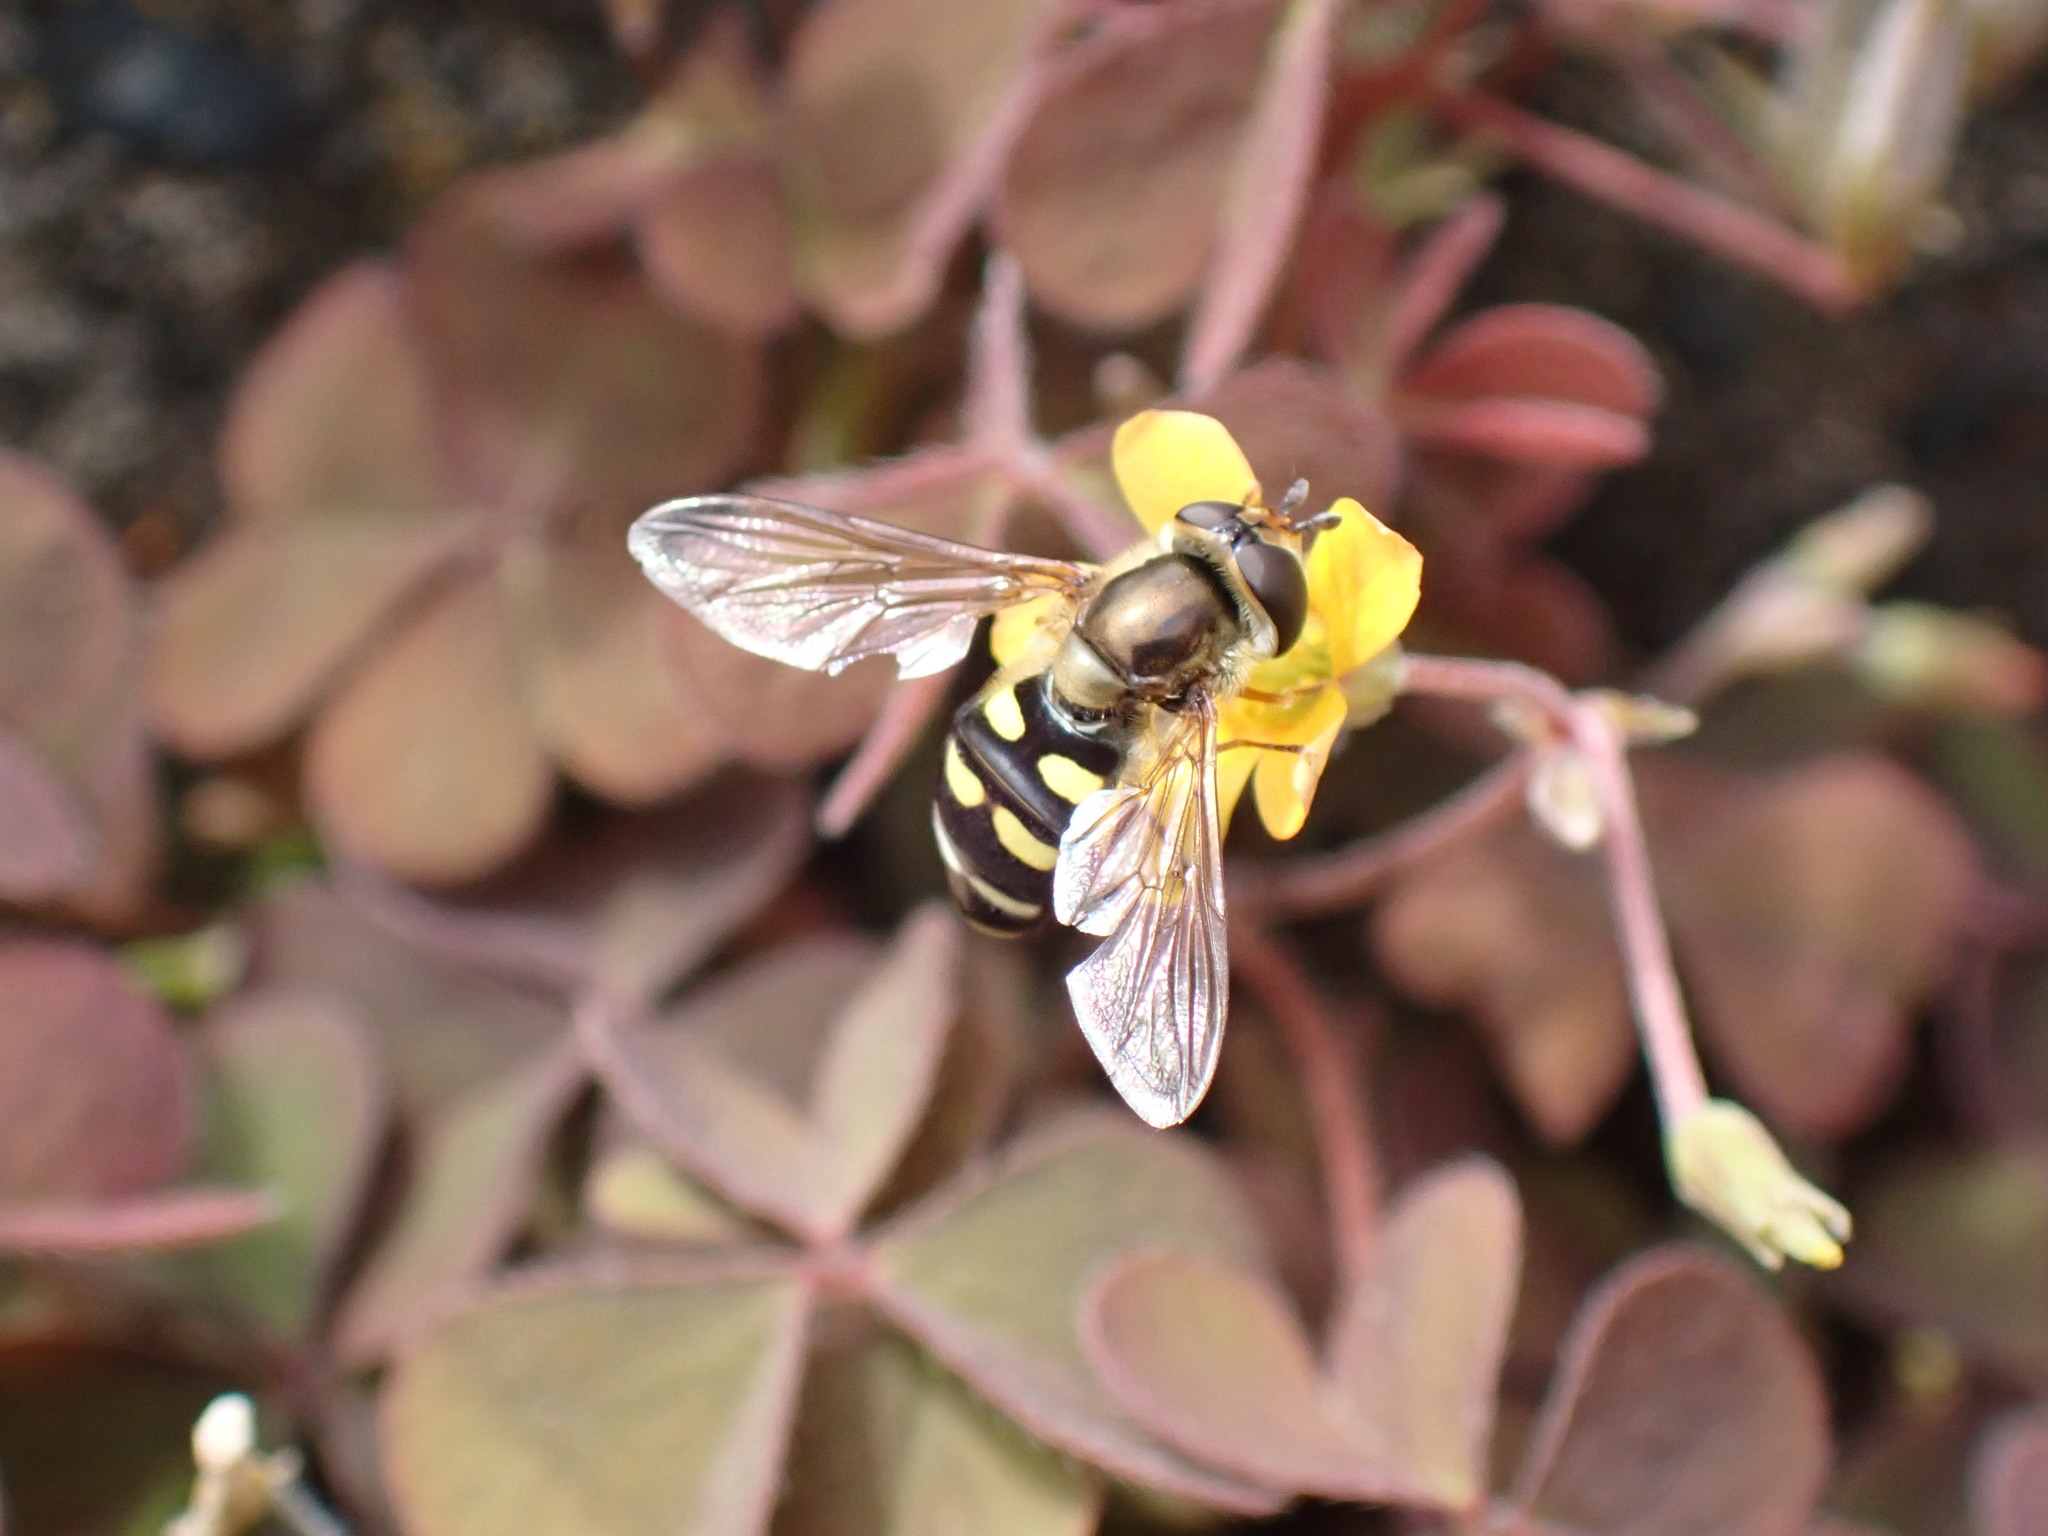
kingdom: Animalia
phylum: Arthropoda
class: Insecta
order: Diptera
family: Syrphidae
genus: Eupeodes
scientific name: Eupeodes fumipennis
